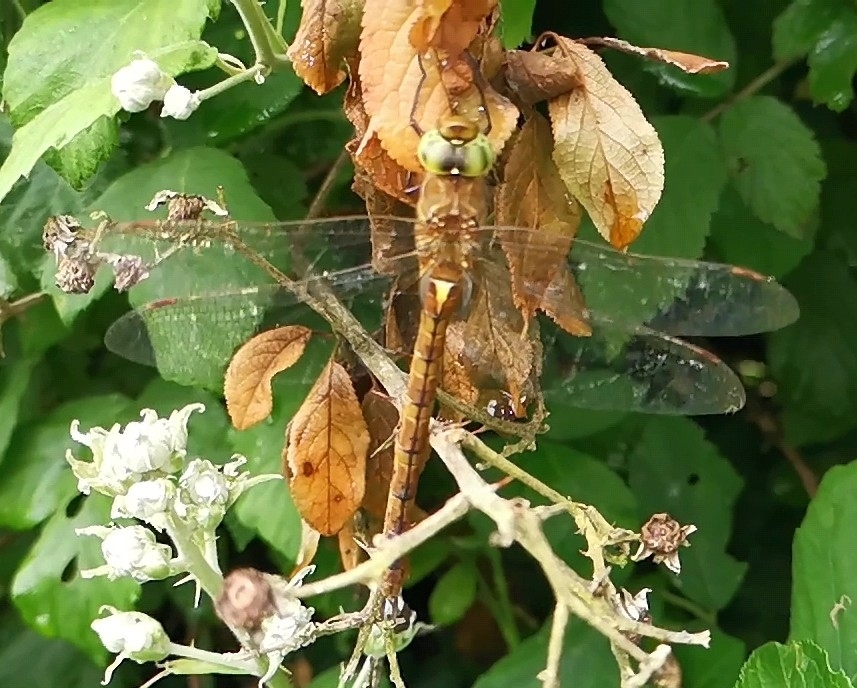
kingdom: Animalia
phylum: Arthropoda
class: Insecta
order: Odonata
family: Aeshnidae
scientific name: Aeshnidae
